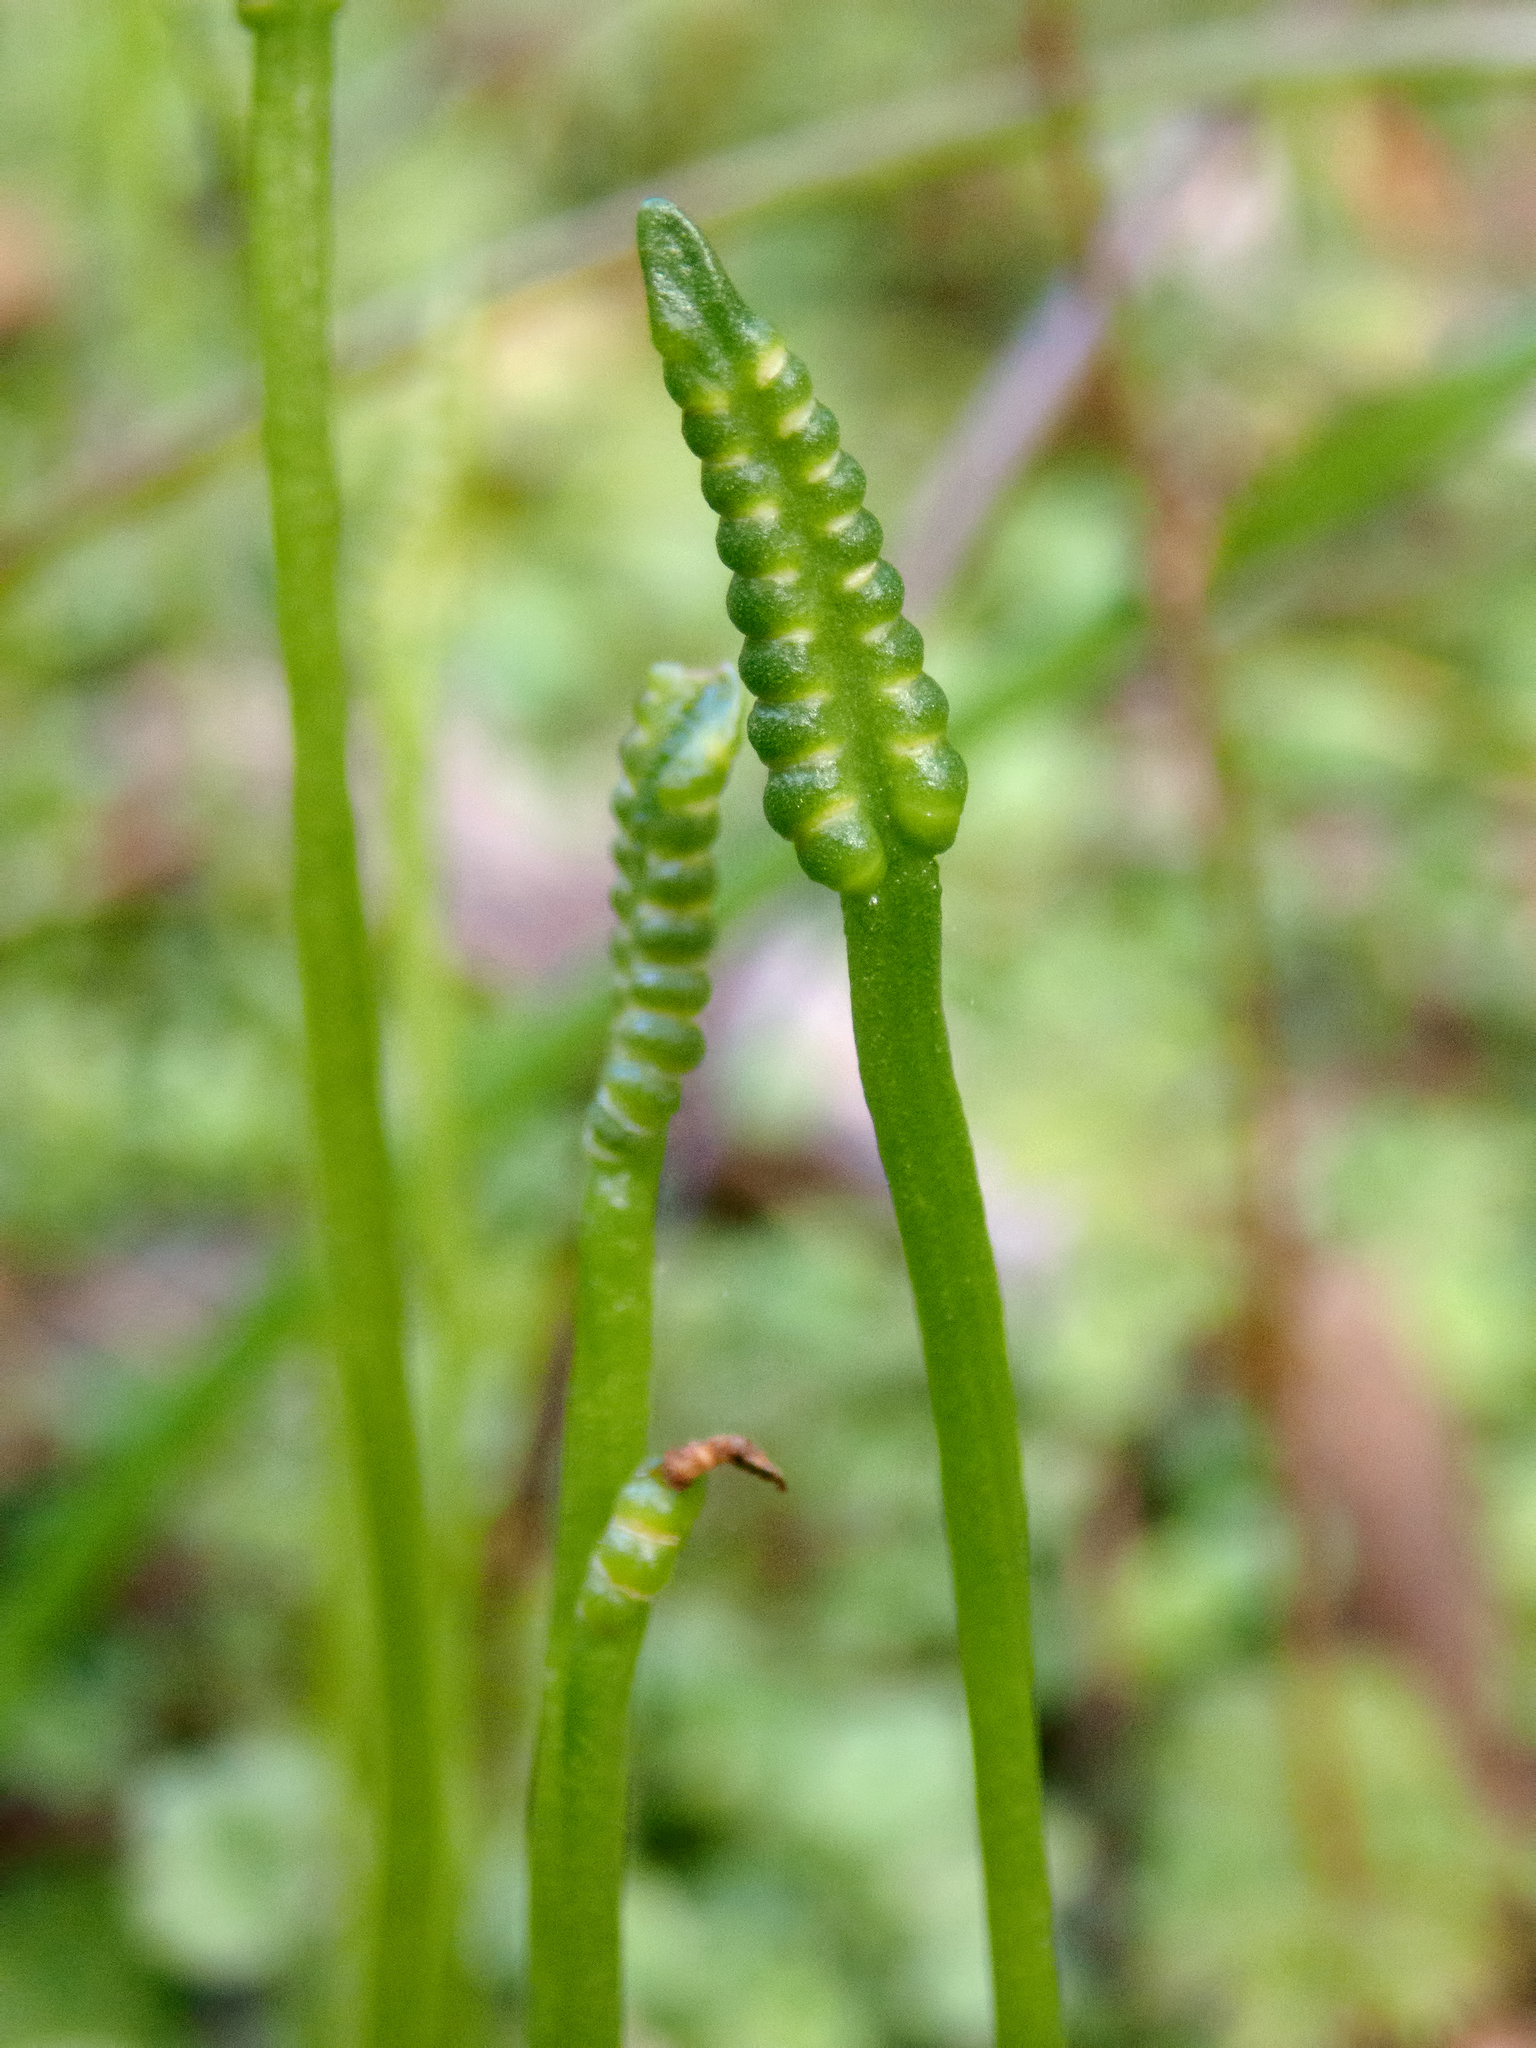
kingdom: Plantae
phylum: Tracheophyta
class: Polypodiopsida
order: Ophioglossales
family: Ophioglossaceae
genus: Ophioglossum
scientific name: Ophioglossum coriaceum
